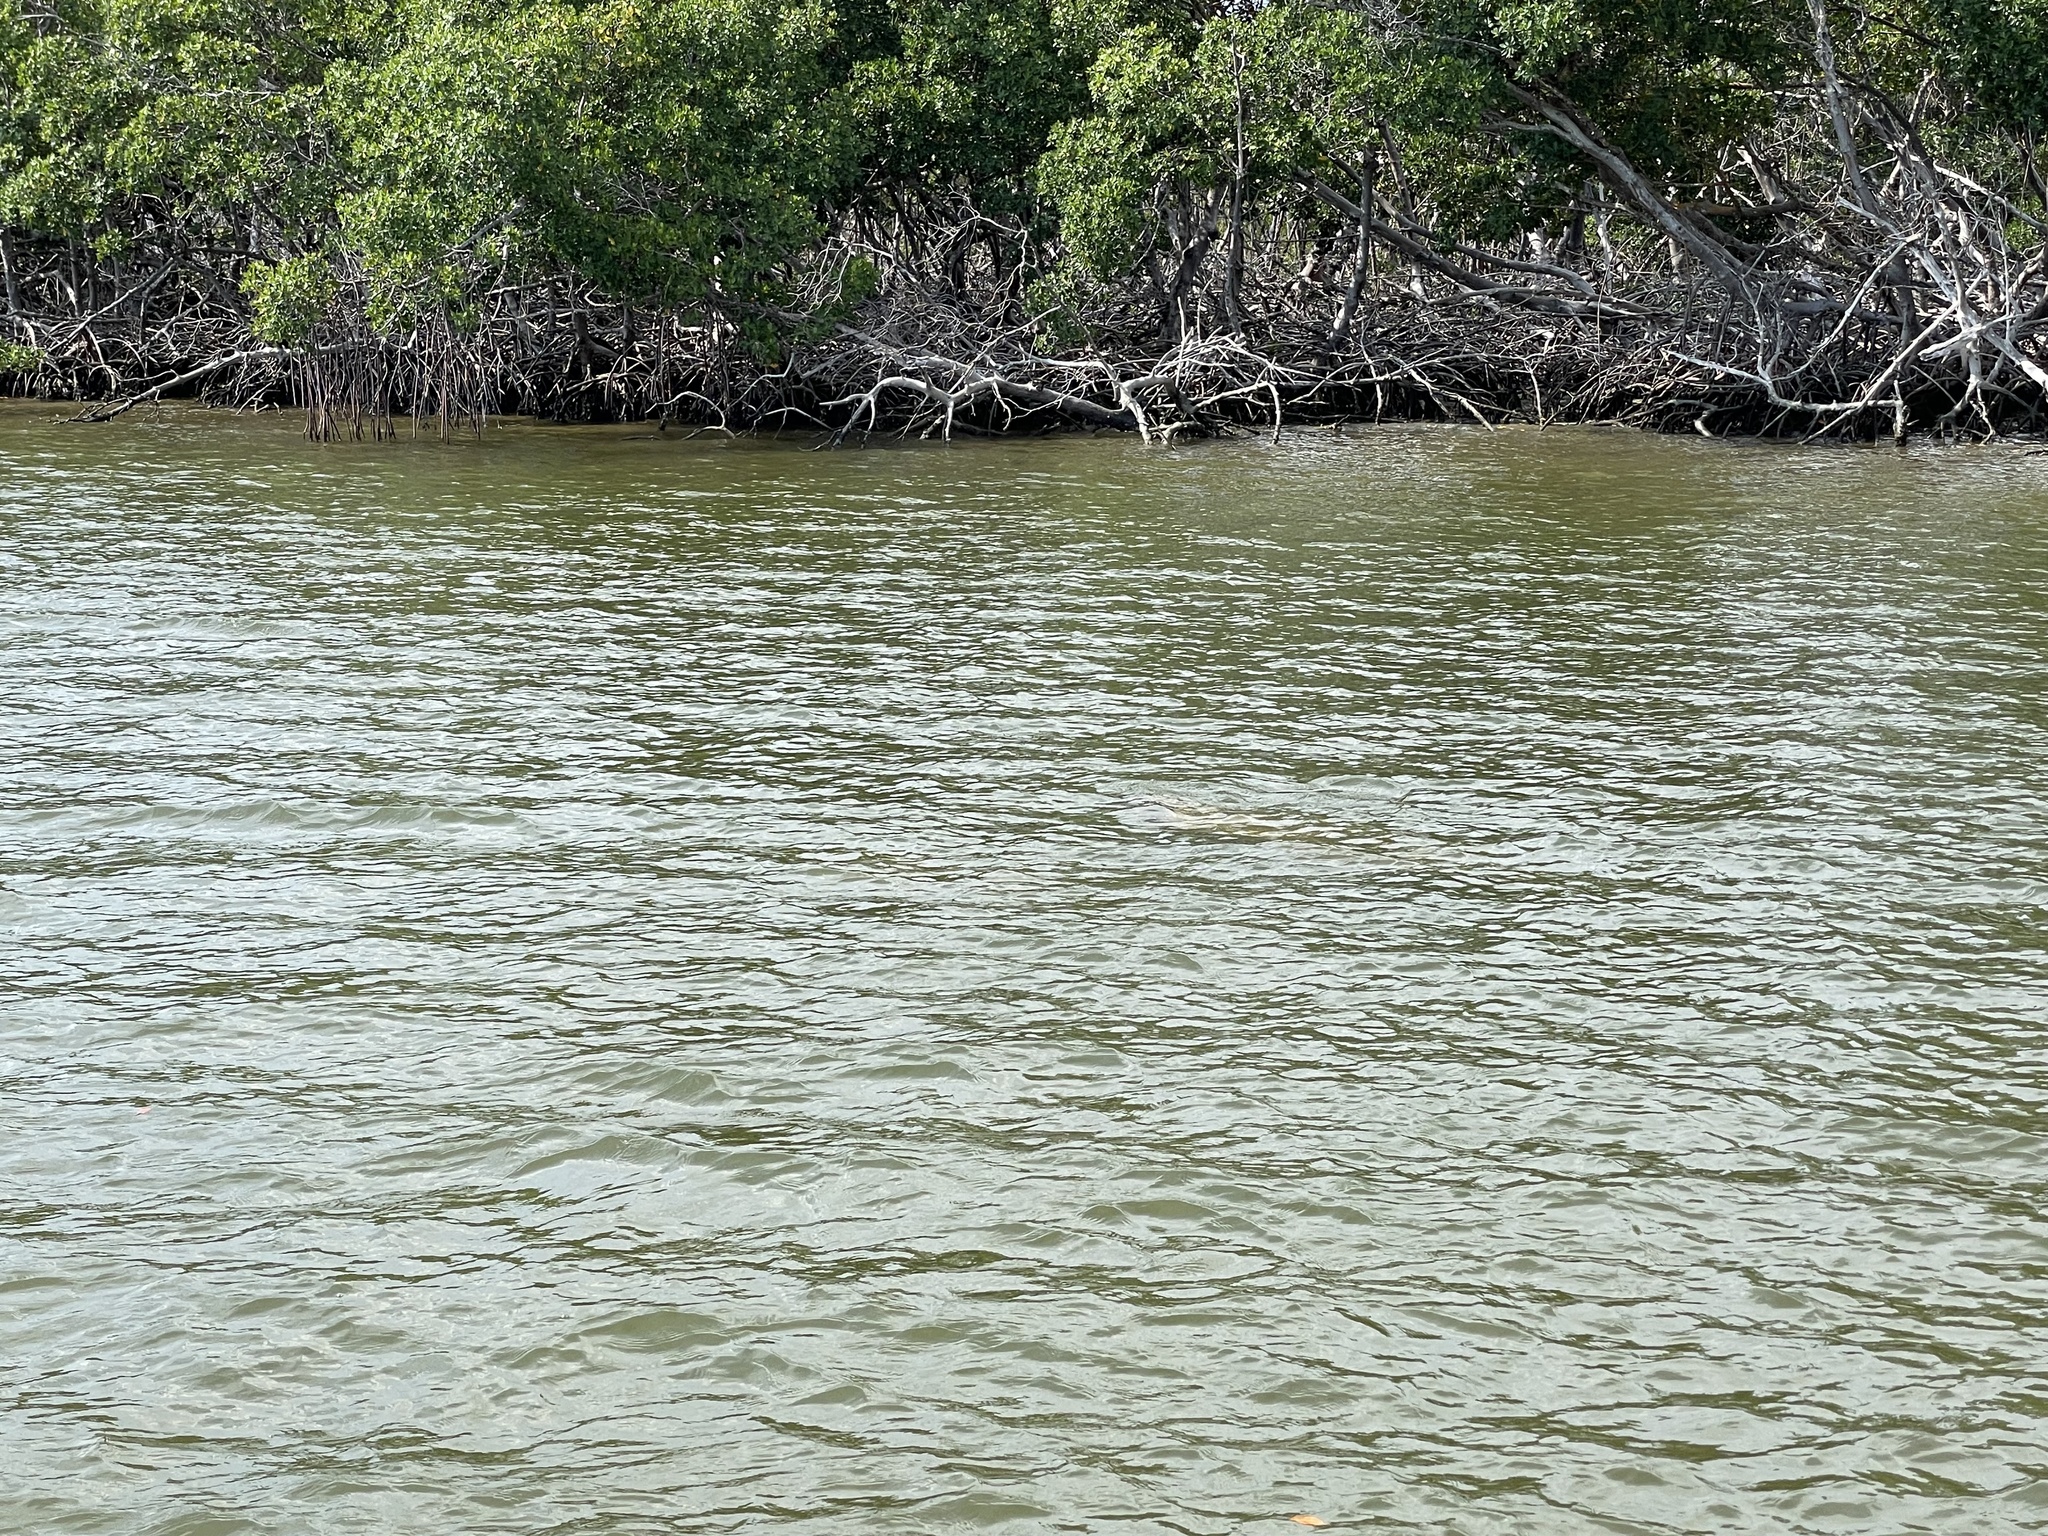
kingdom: Animalia
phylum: Chordata
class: Mammalia
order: Sirenia
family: Trichechidae
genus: Trichechus
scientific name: Trichechus manatus
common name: West indian manatee
